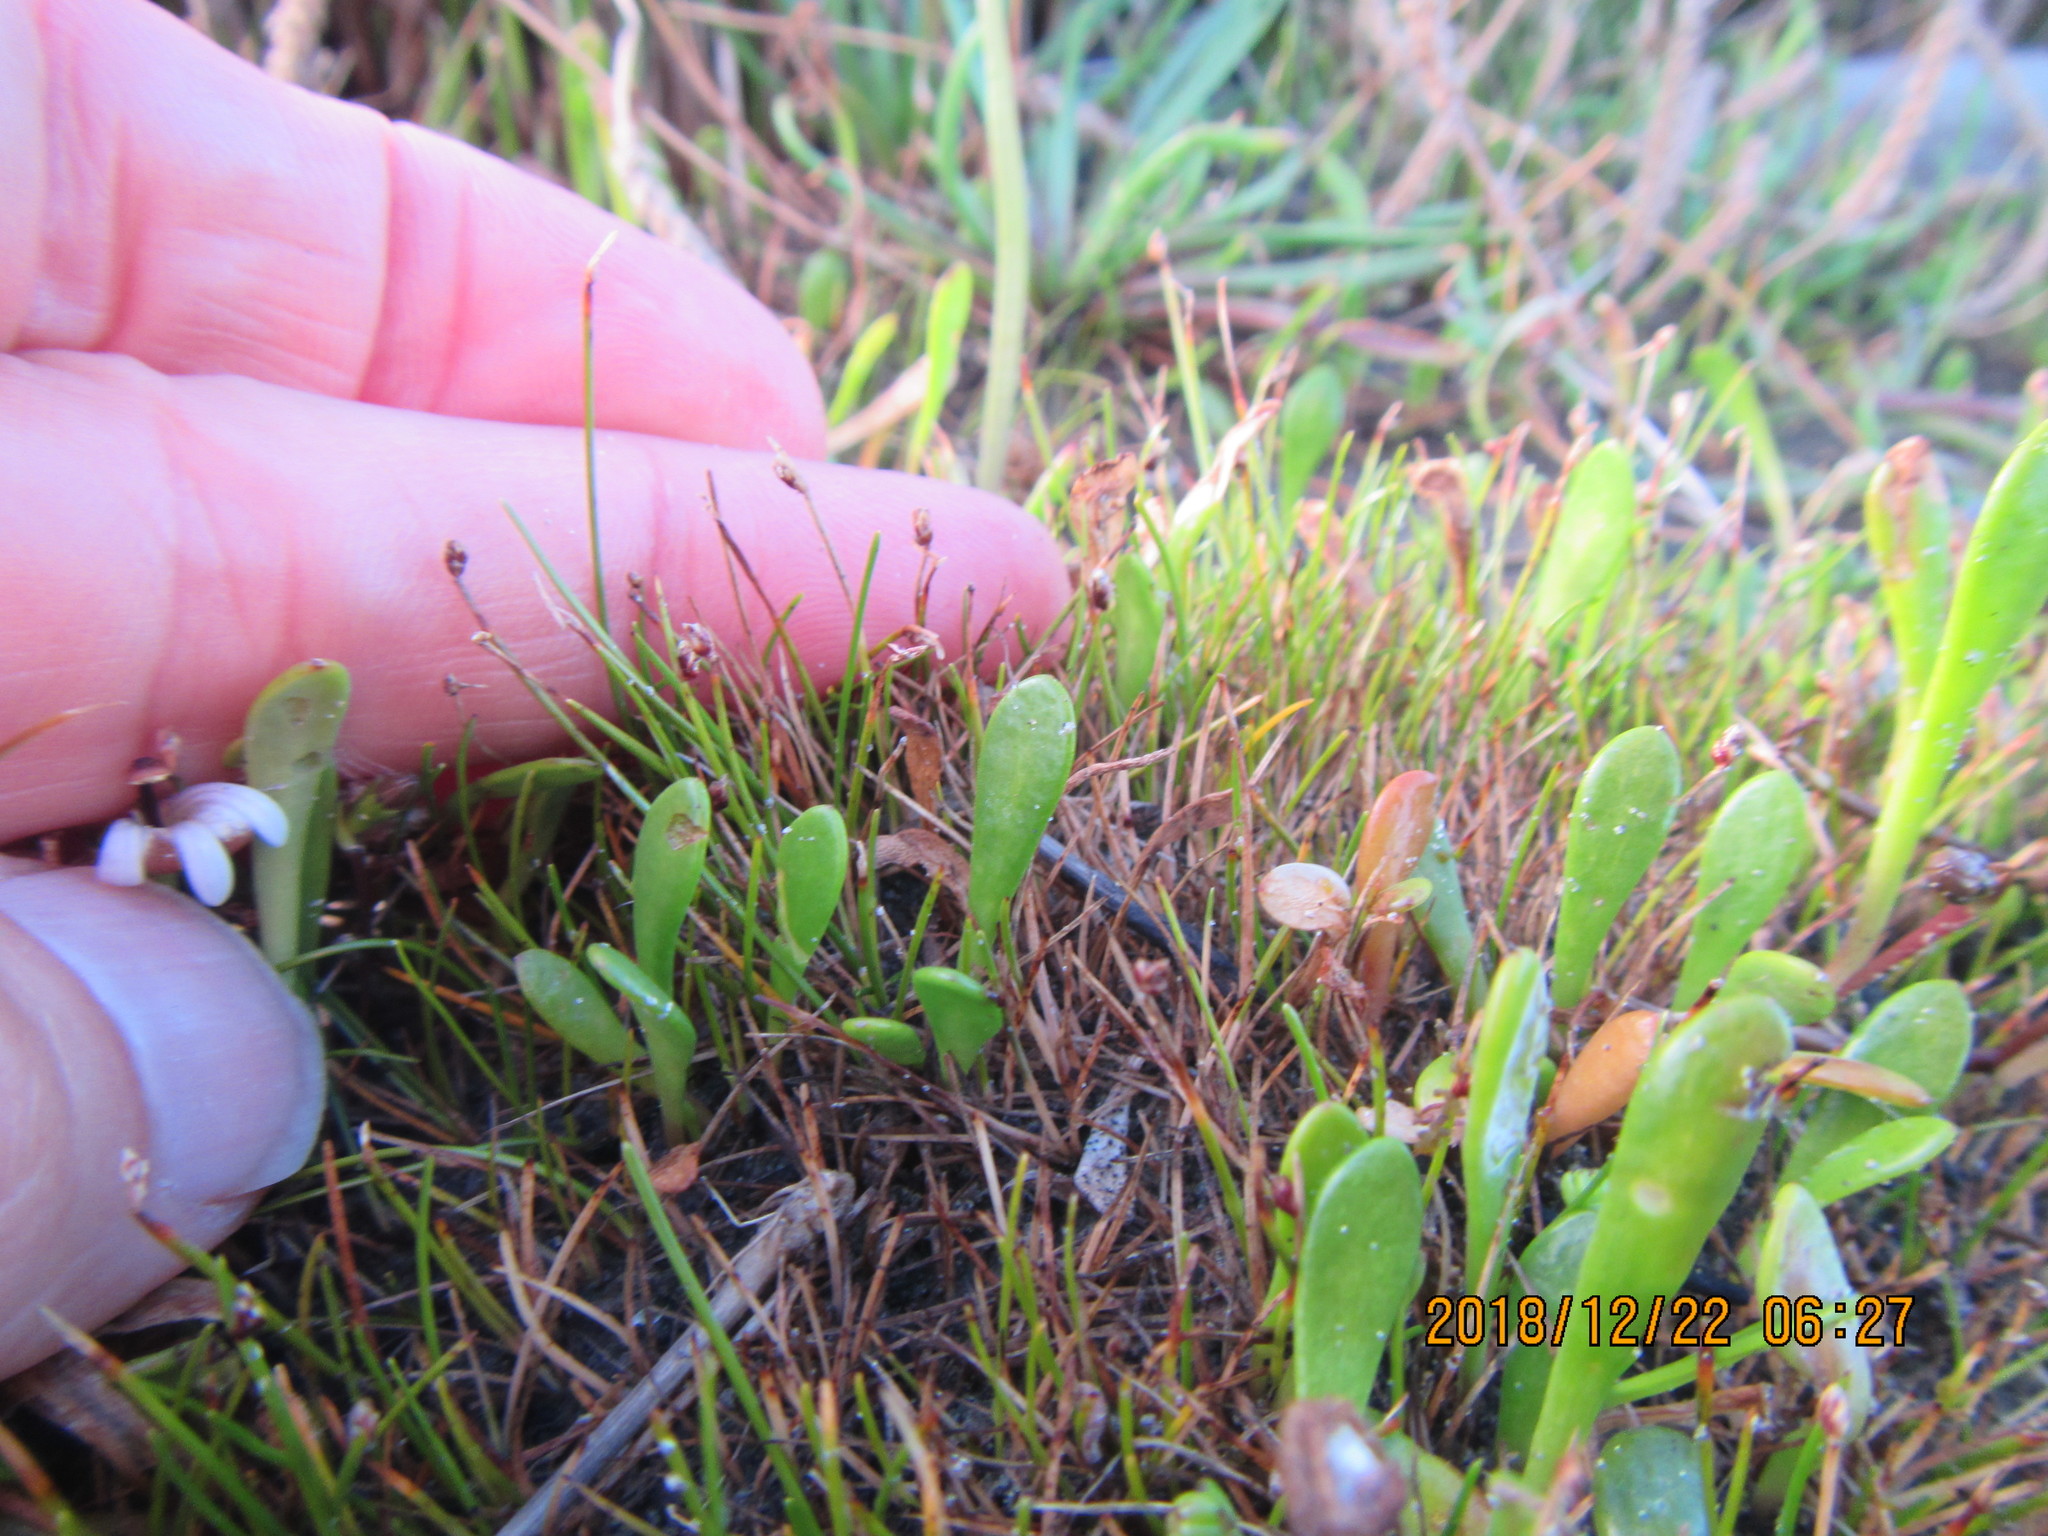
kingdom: Plantae
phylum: Tracheophyta
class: Liliopsida
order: Poales
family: Cyperaceae
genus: Isolepis
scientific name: Isolepis cernua
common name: Slender club-rush
